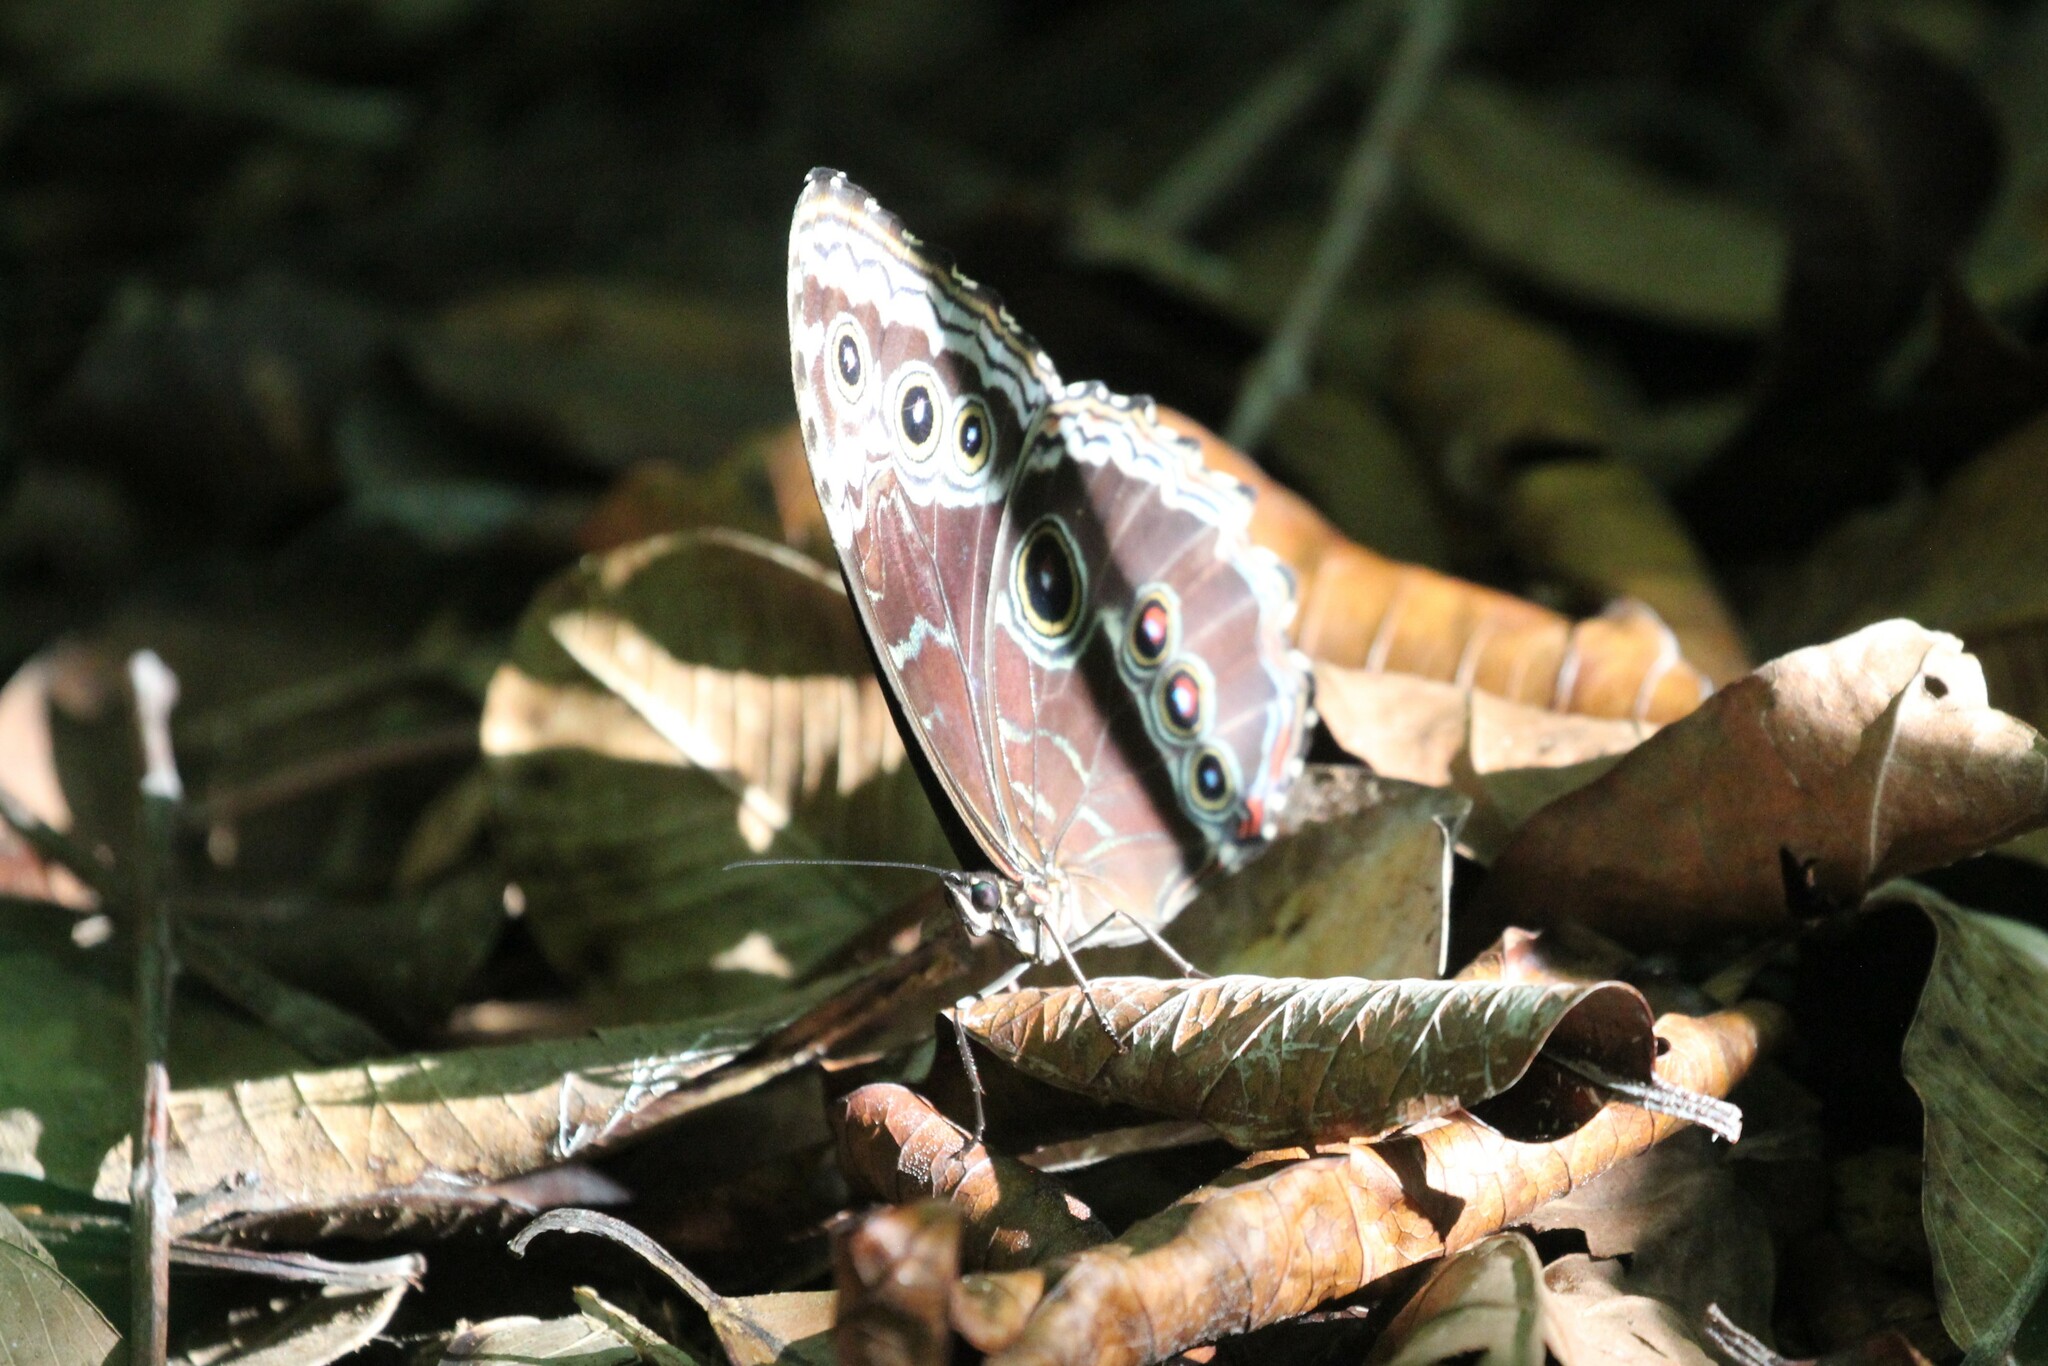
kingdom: Animalia
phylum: Arthropoda
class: Insecta
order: Lepidoptera
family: Nymphalidae
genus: Morpho
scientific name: Morpho helenor
